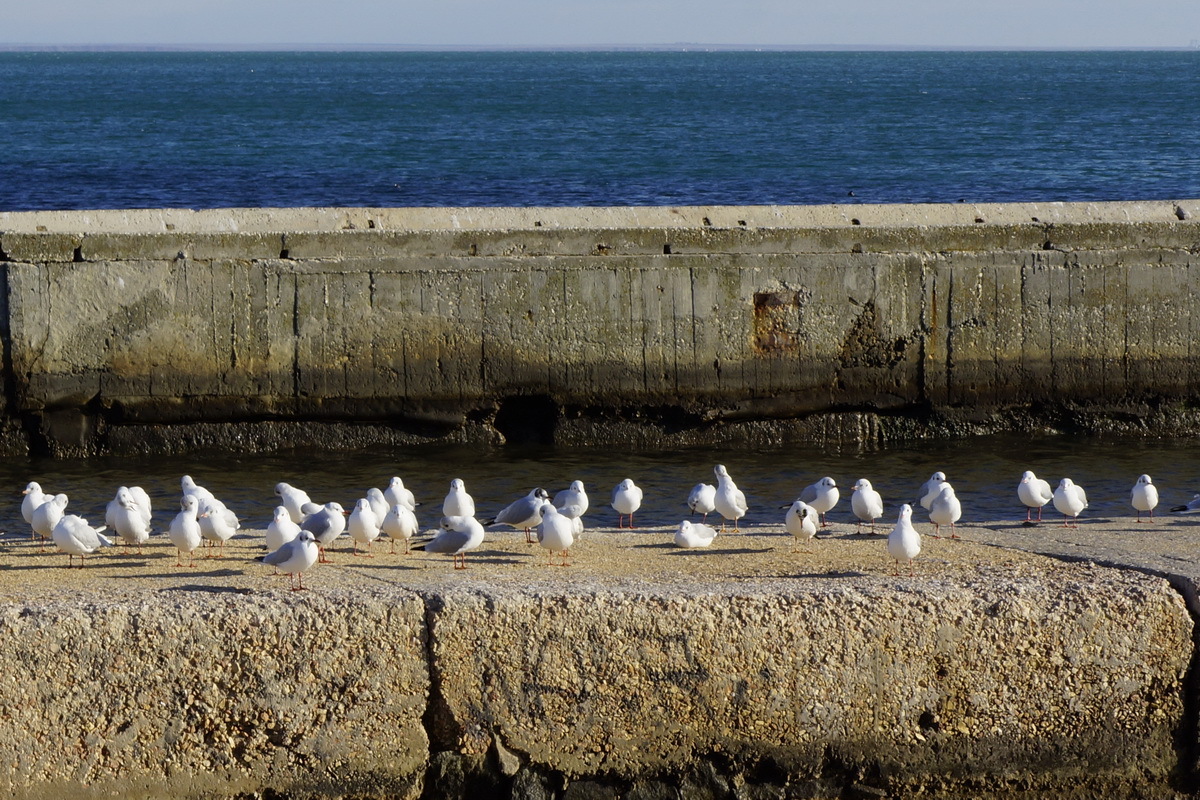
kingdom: Animalia
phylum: Chordata
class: Aves
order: Charadriiformes
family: Laridae
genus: Chroicocephalus
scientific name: Chroicocephalus ridibundus
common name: Black-headed gull
